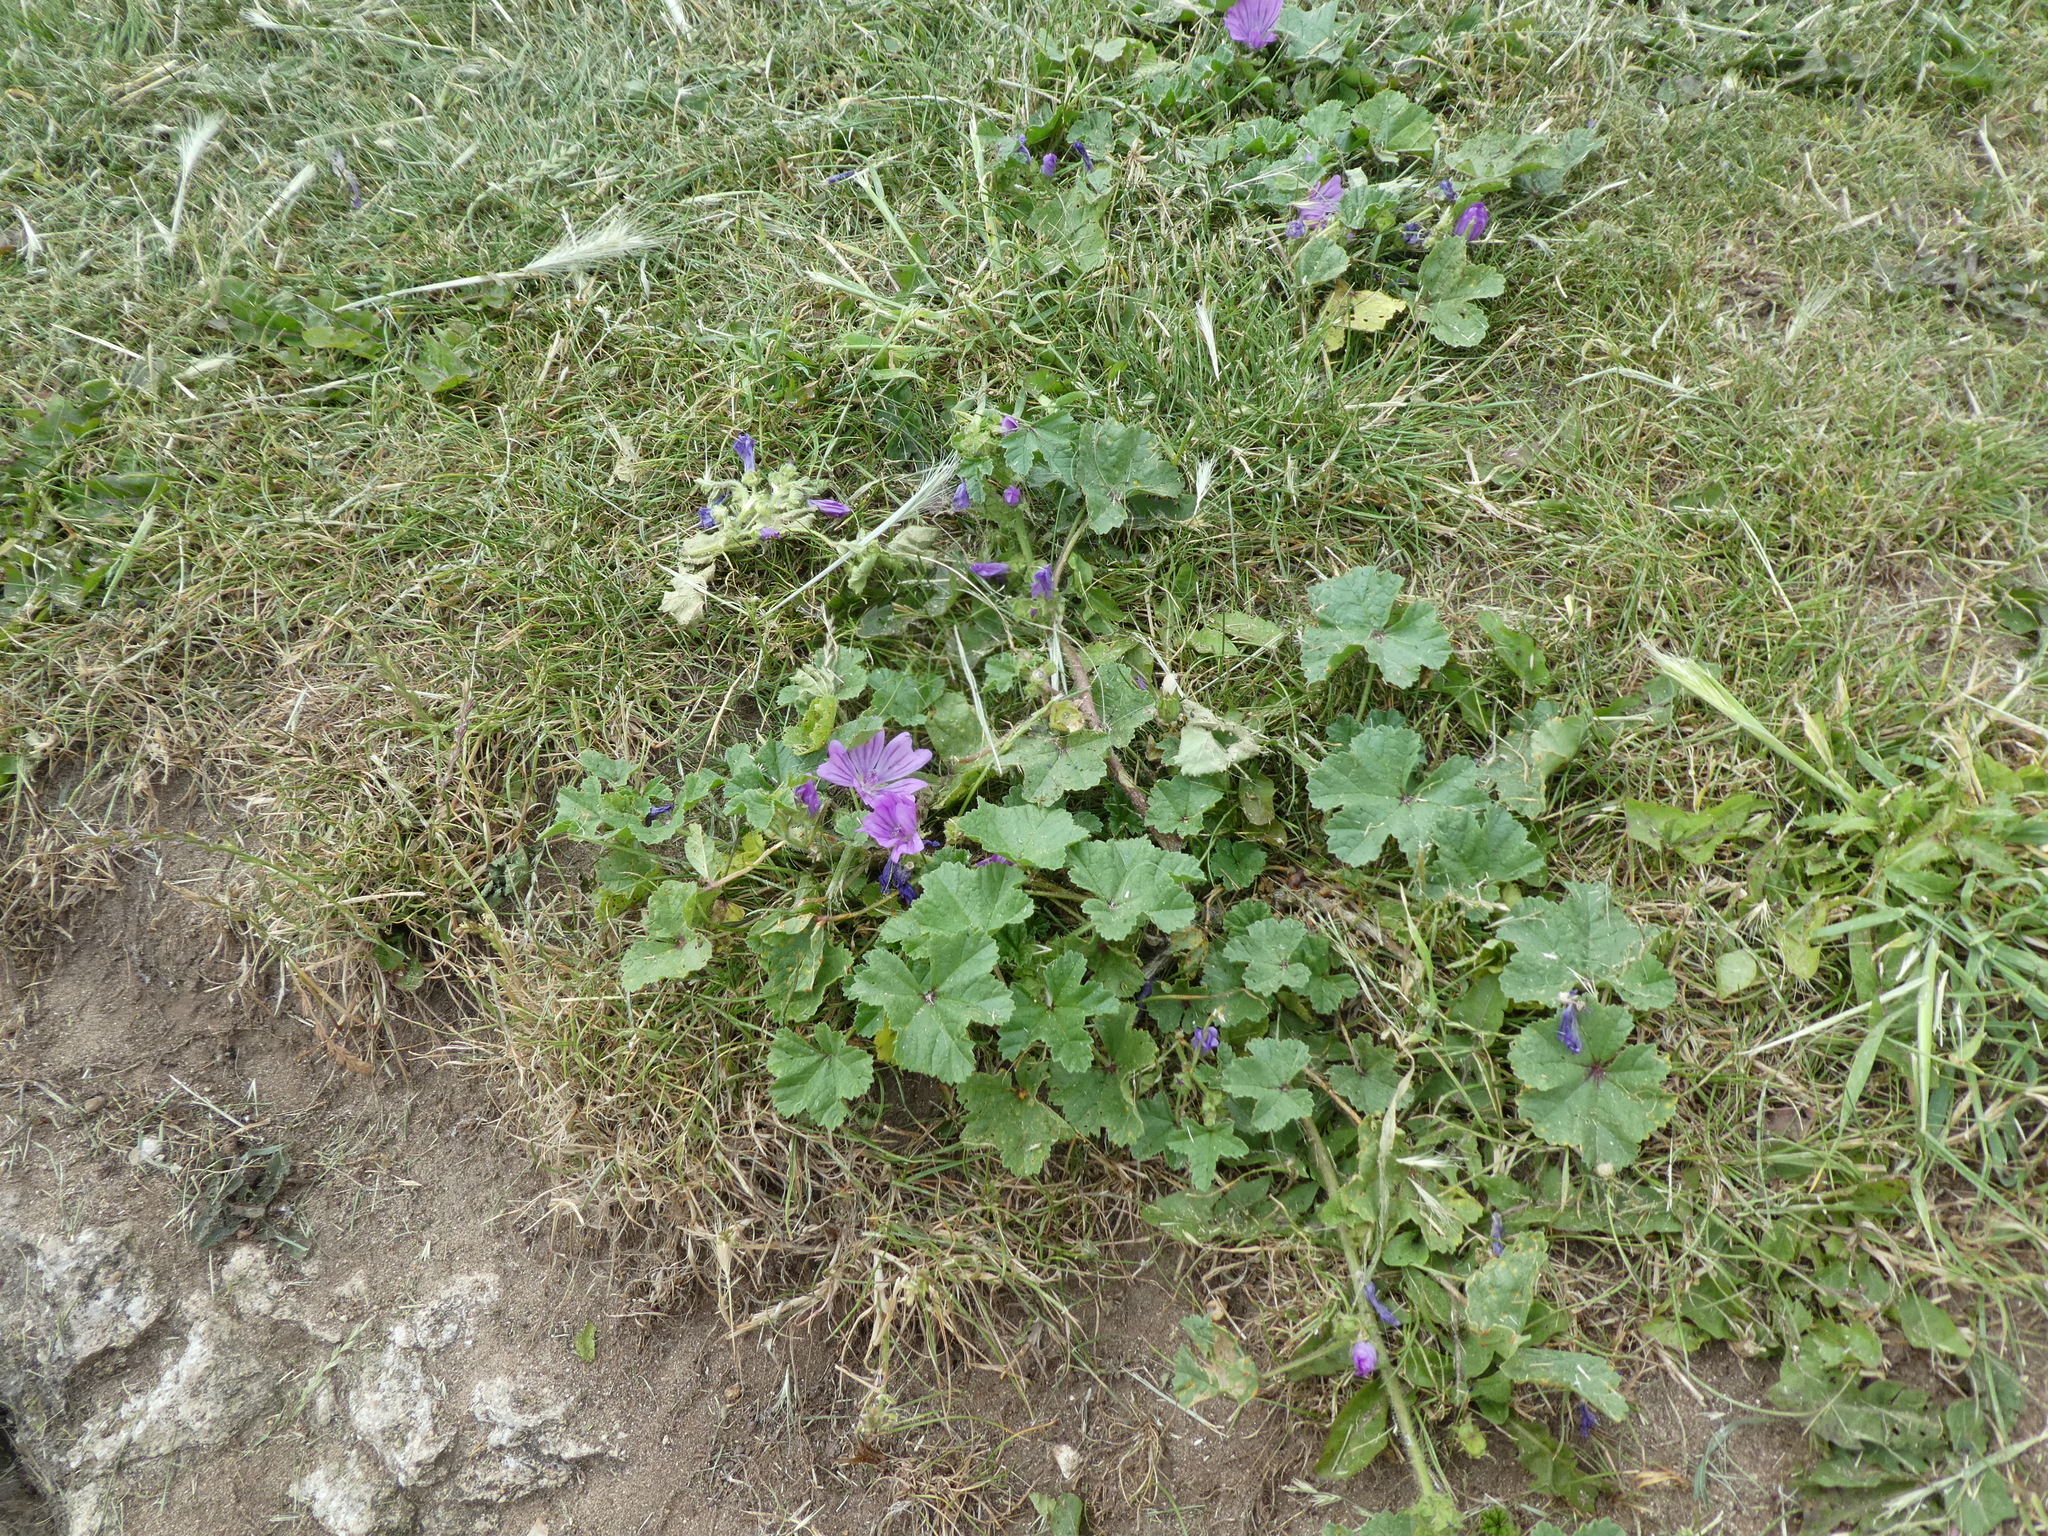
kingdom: Plantae
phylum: Tracheophyta
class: Magnoliopsida
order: Malvales
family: Malvaceae
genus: Malva
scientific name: Malva sylvestris
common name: Common mallow
